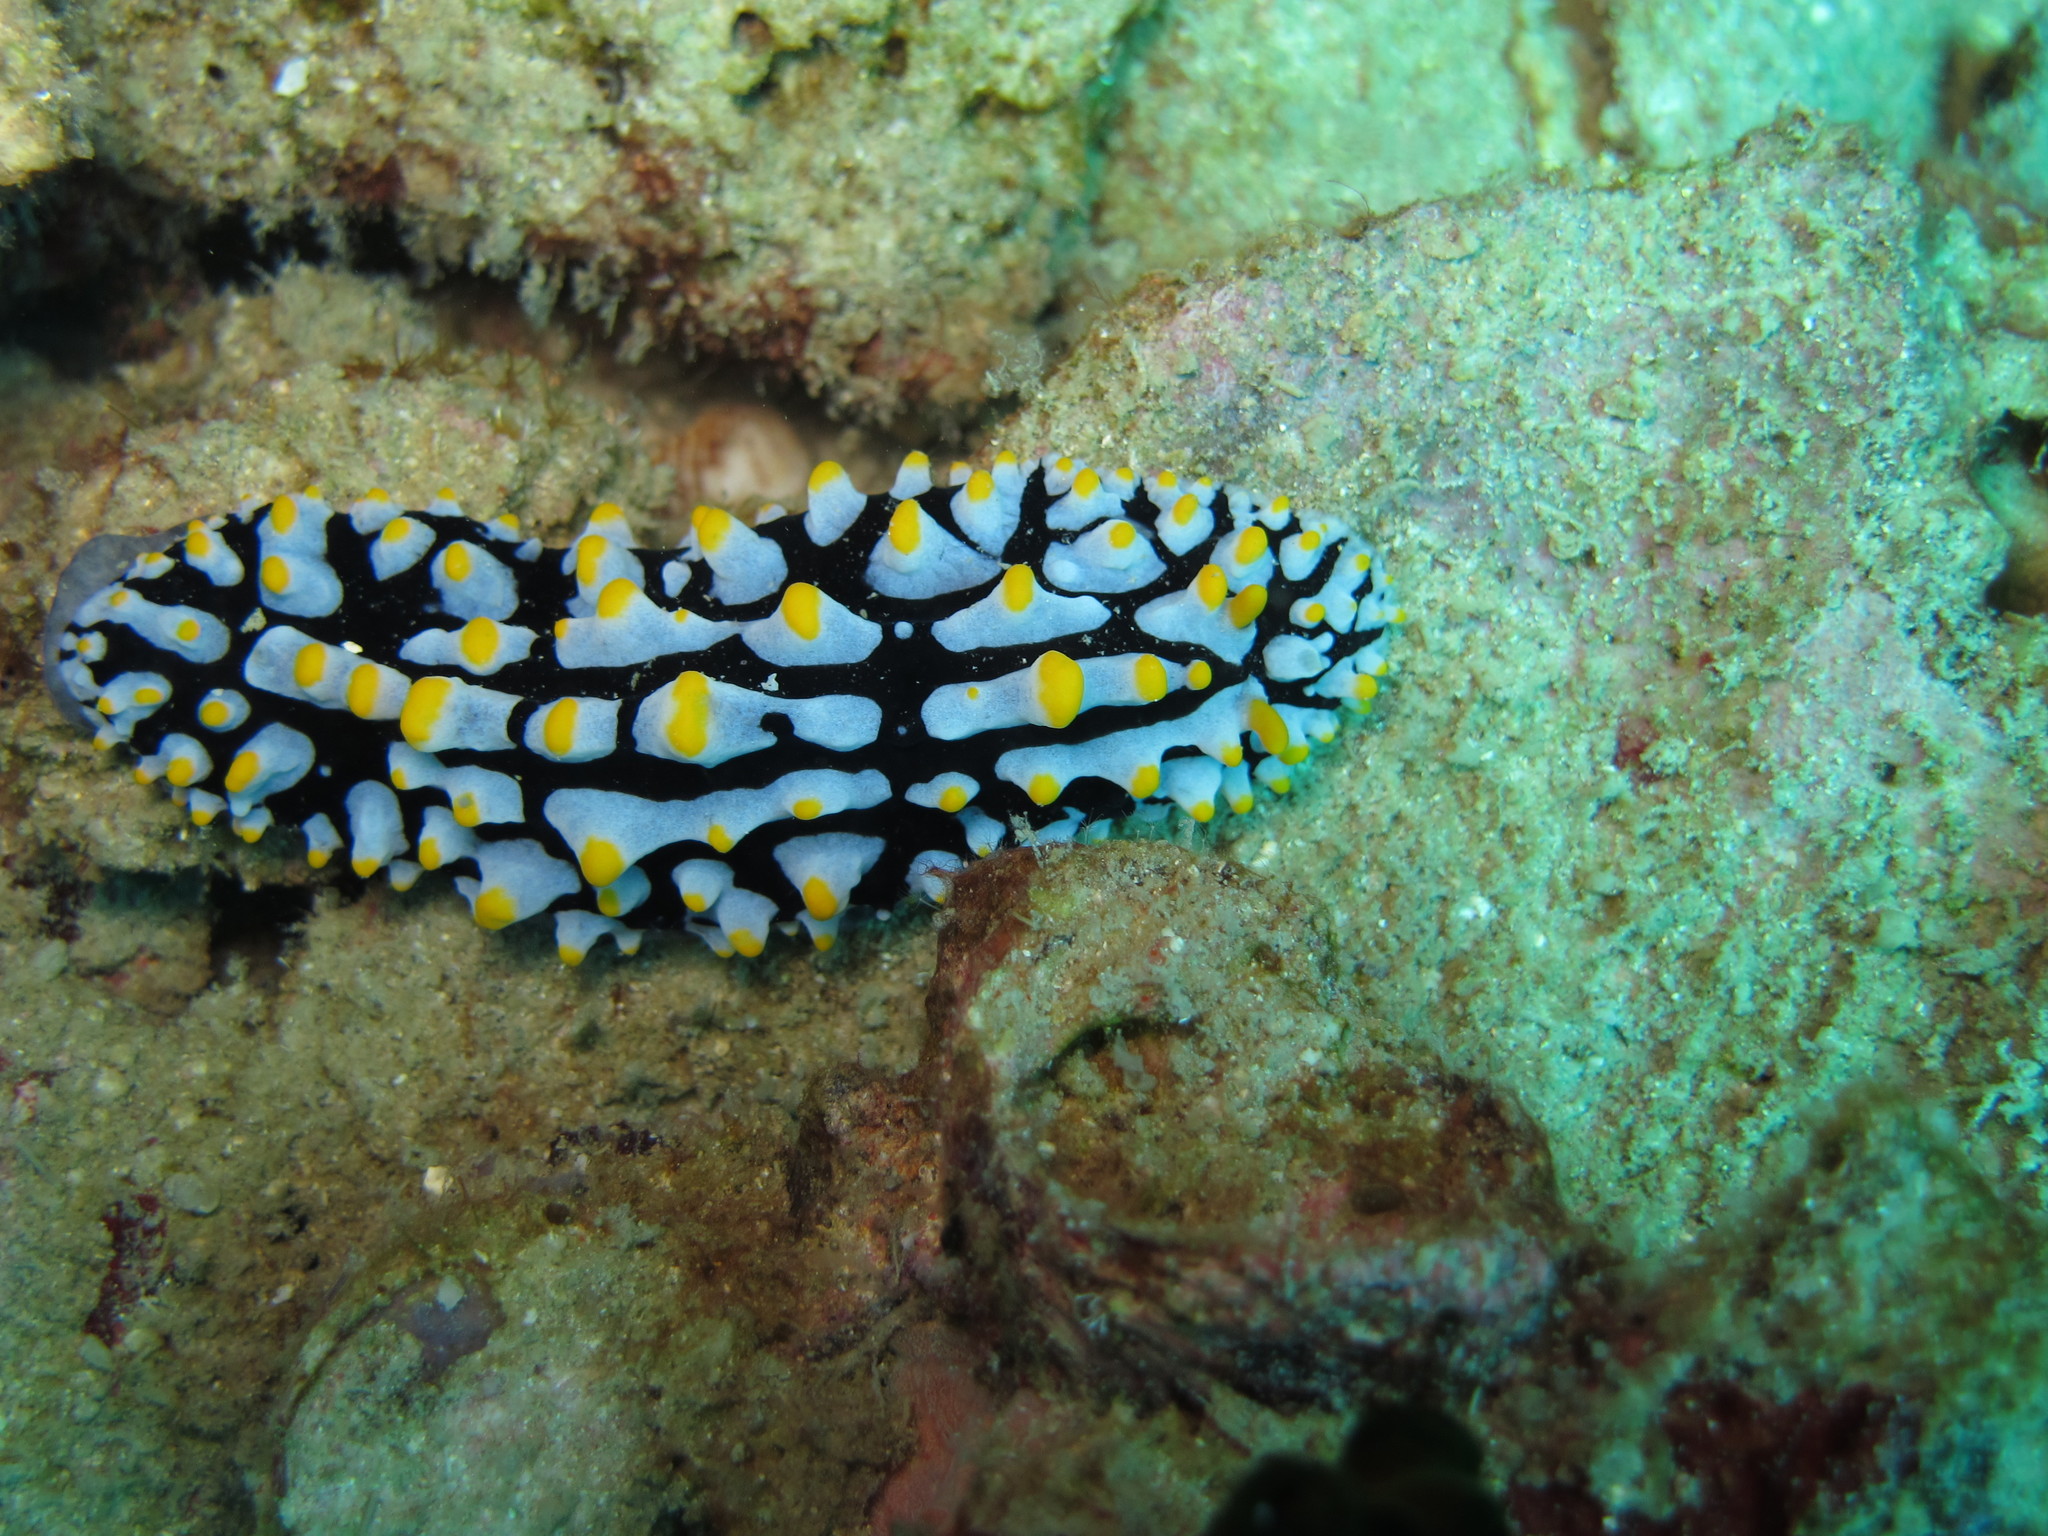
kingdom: Animalia
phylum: Mollusca
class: Gastropoda
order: Nudibranchia
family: Phyllidiidae
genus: Phyllidia
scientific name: Phyllidia varicosa
